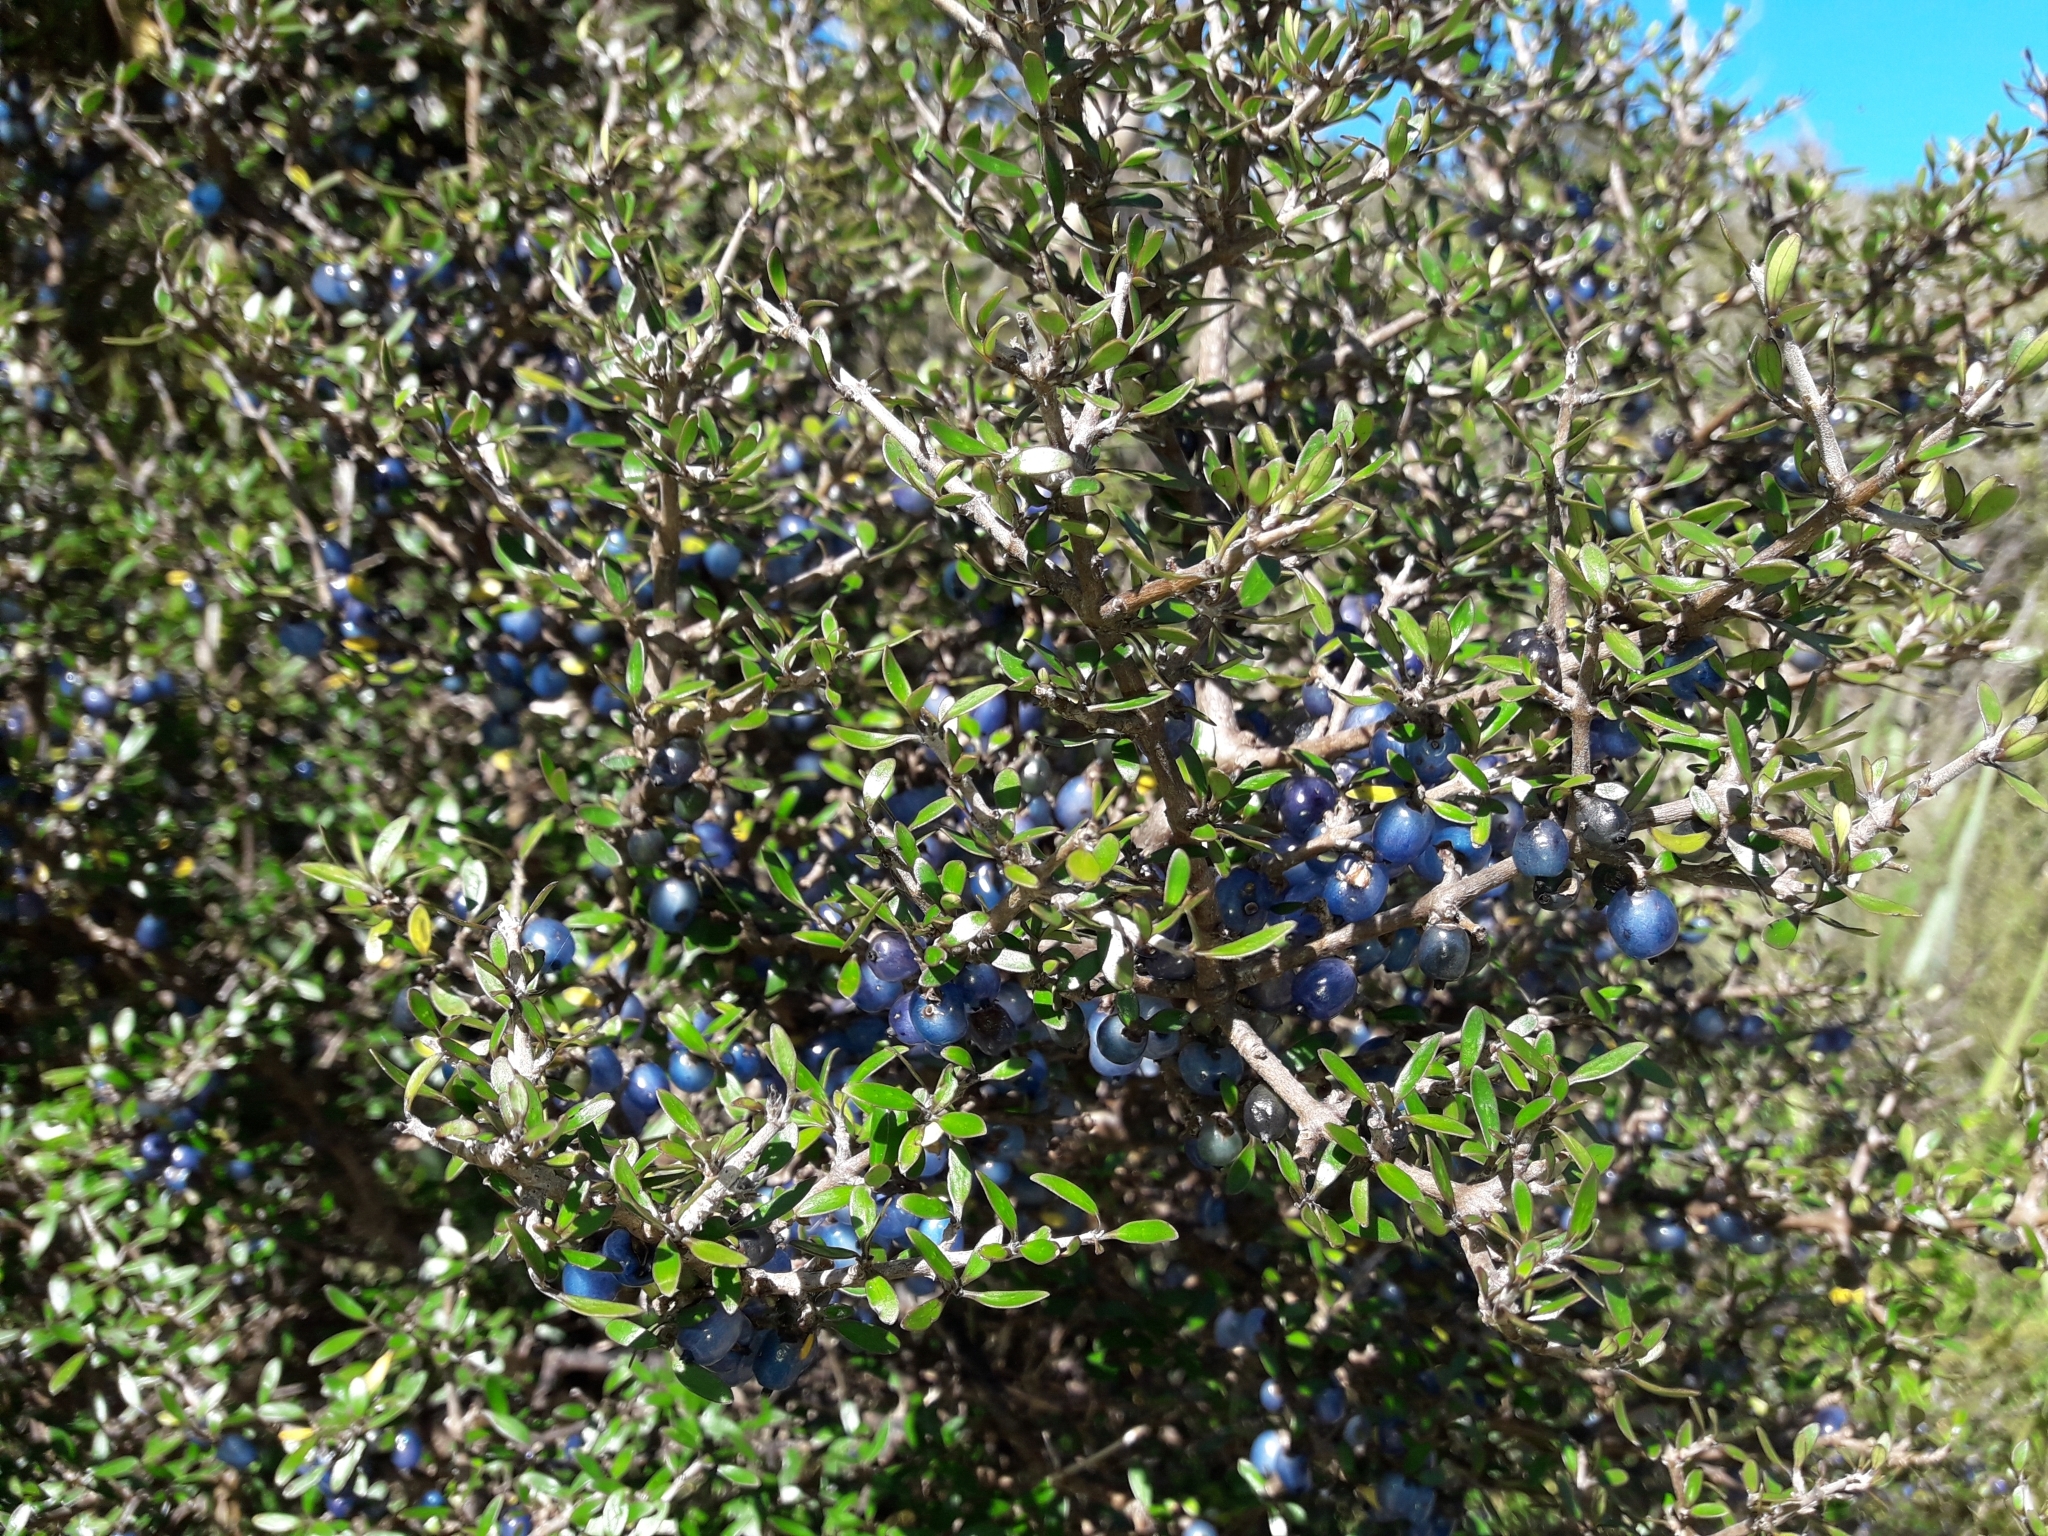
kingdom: Plantae
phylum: Tracheophyta
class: Magnoliopsida
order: Gentianales
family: Rubiaceae
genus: Coprosma
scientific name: Coprosma propinqua
